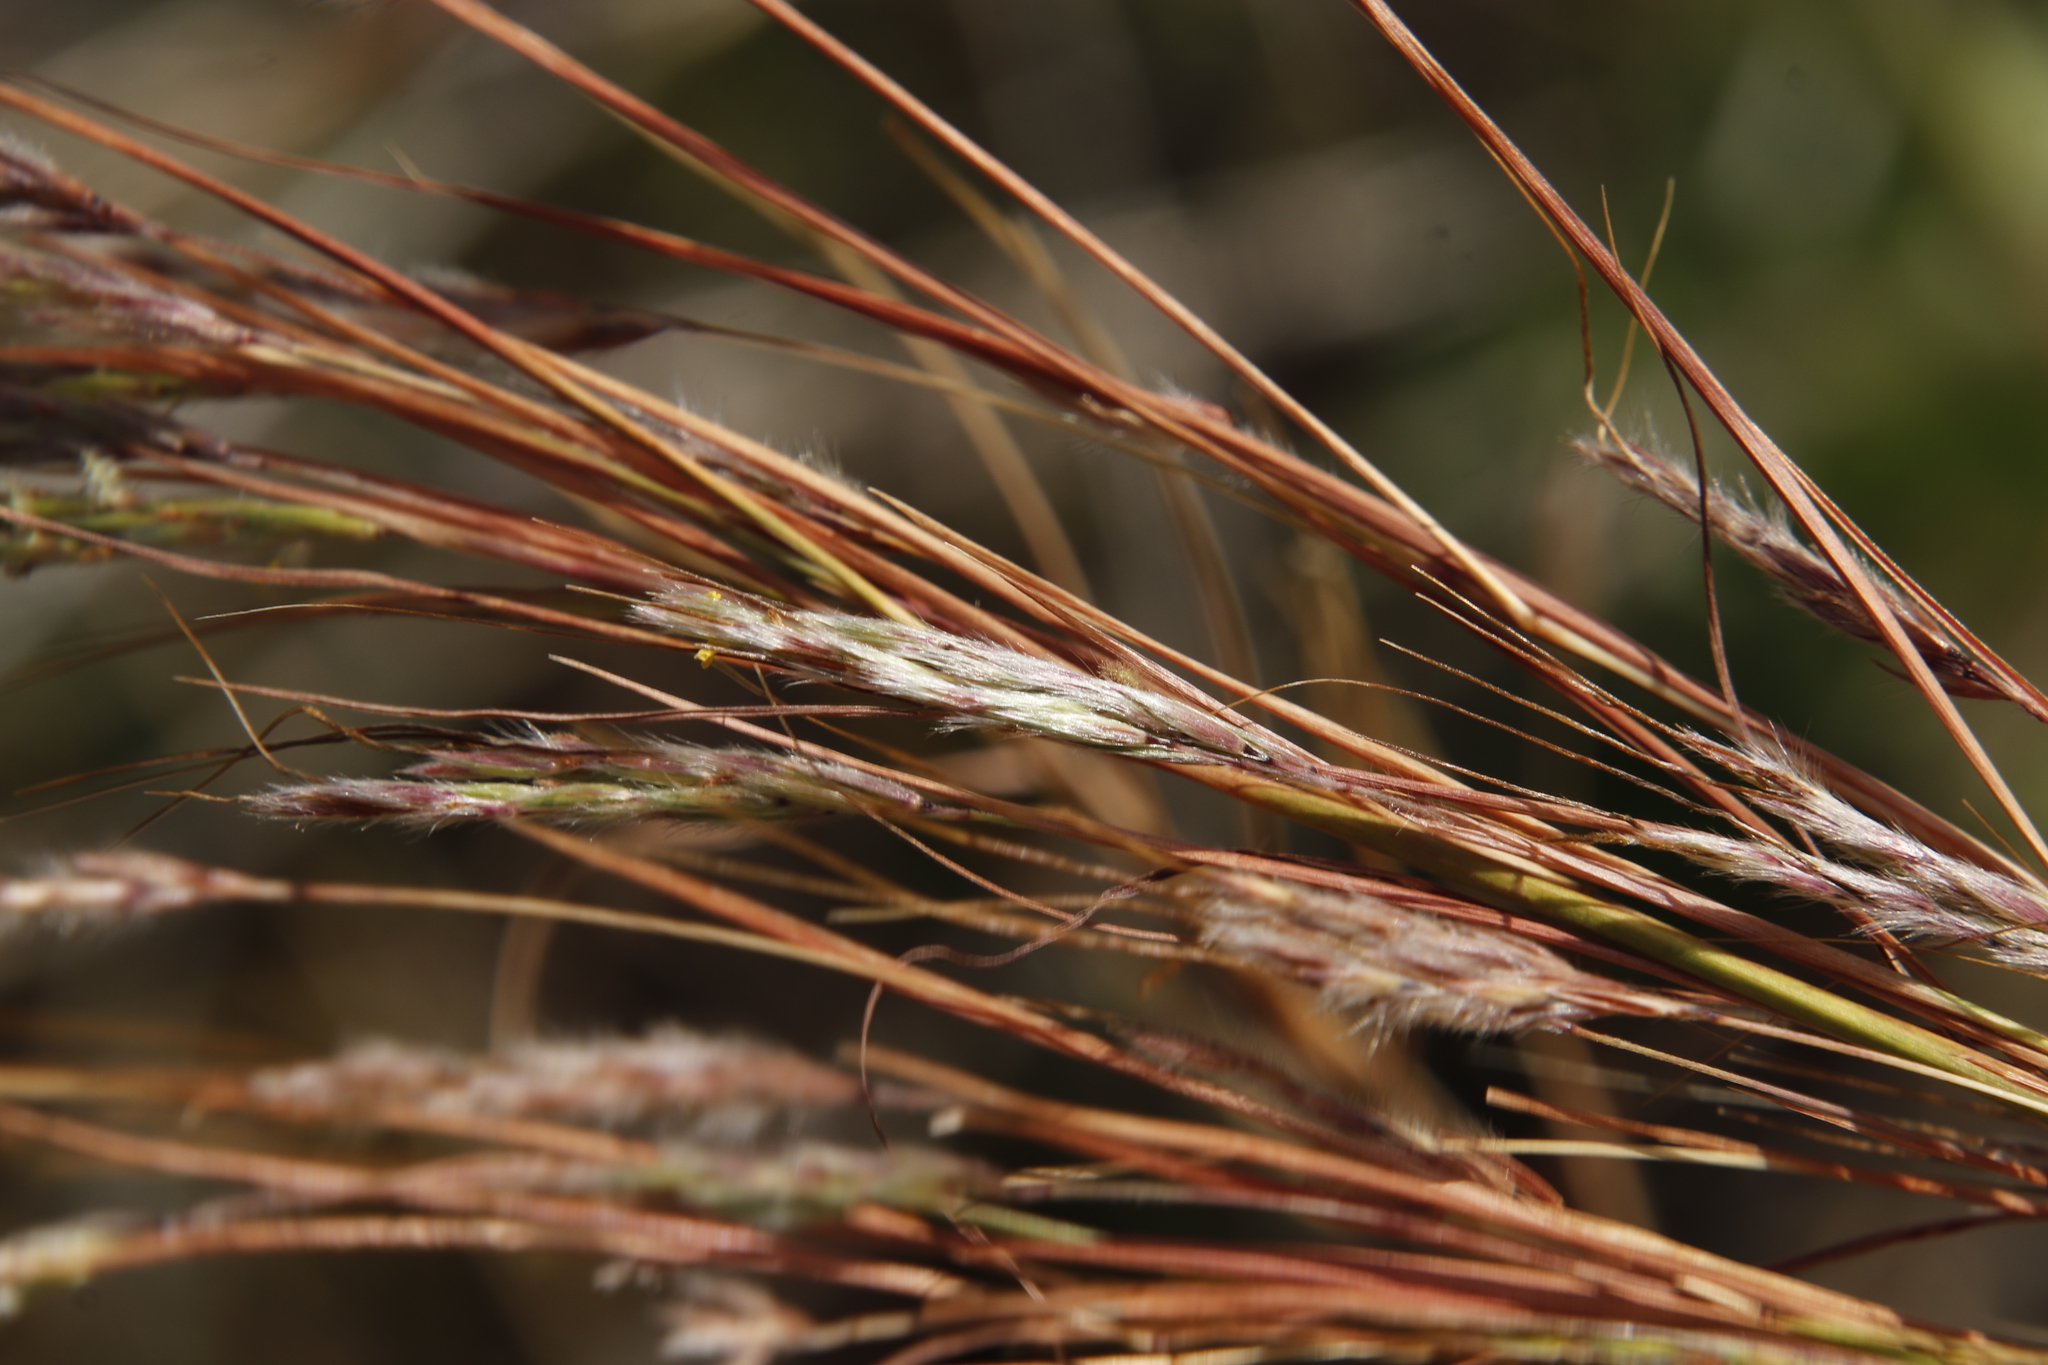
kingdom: Plantae
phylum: Tracheophyta
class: Liliopsida
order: Poales
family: Poaceae
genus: Hyparrhenia
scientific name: Hyparrhenia hirta
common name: Thatching grass
